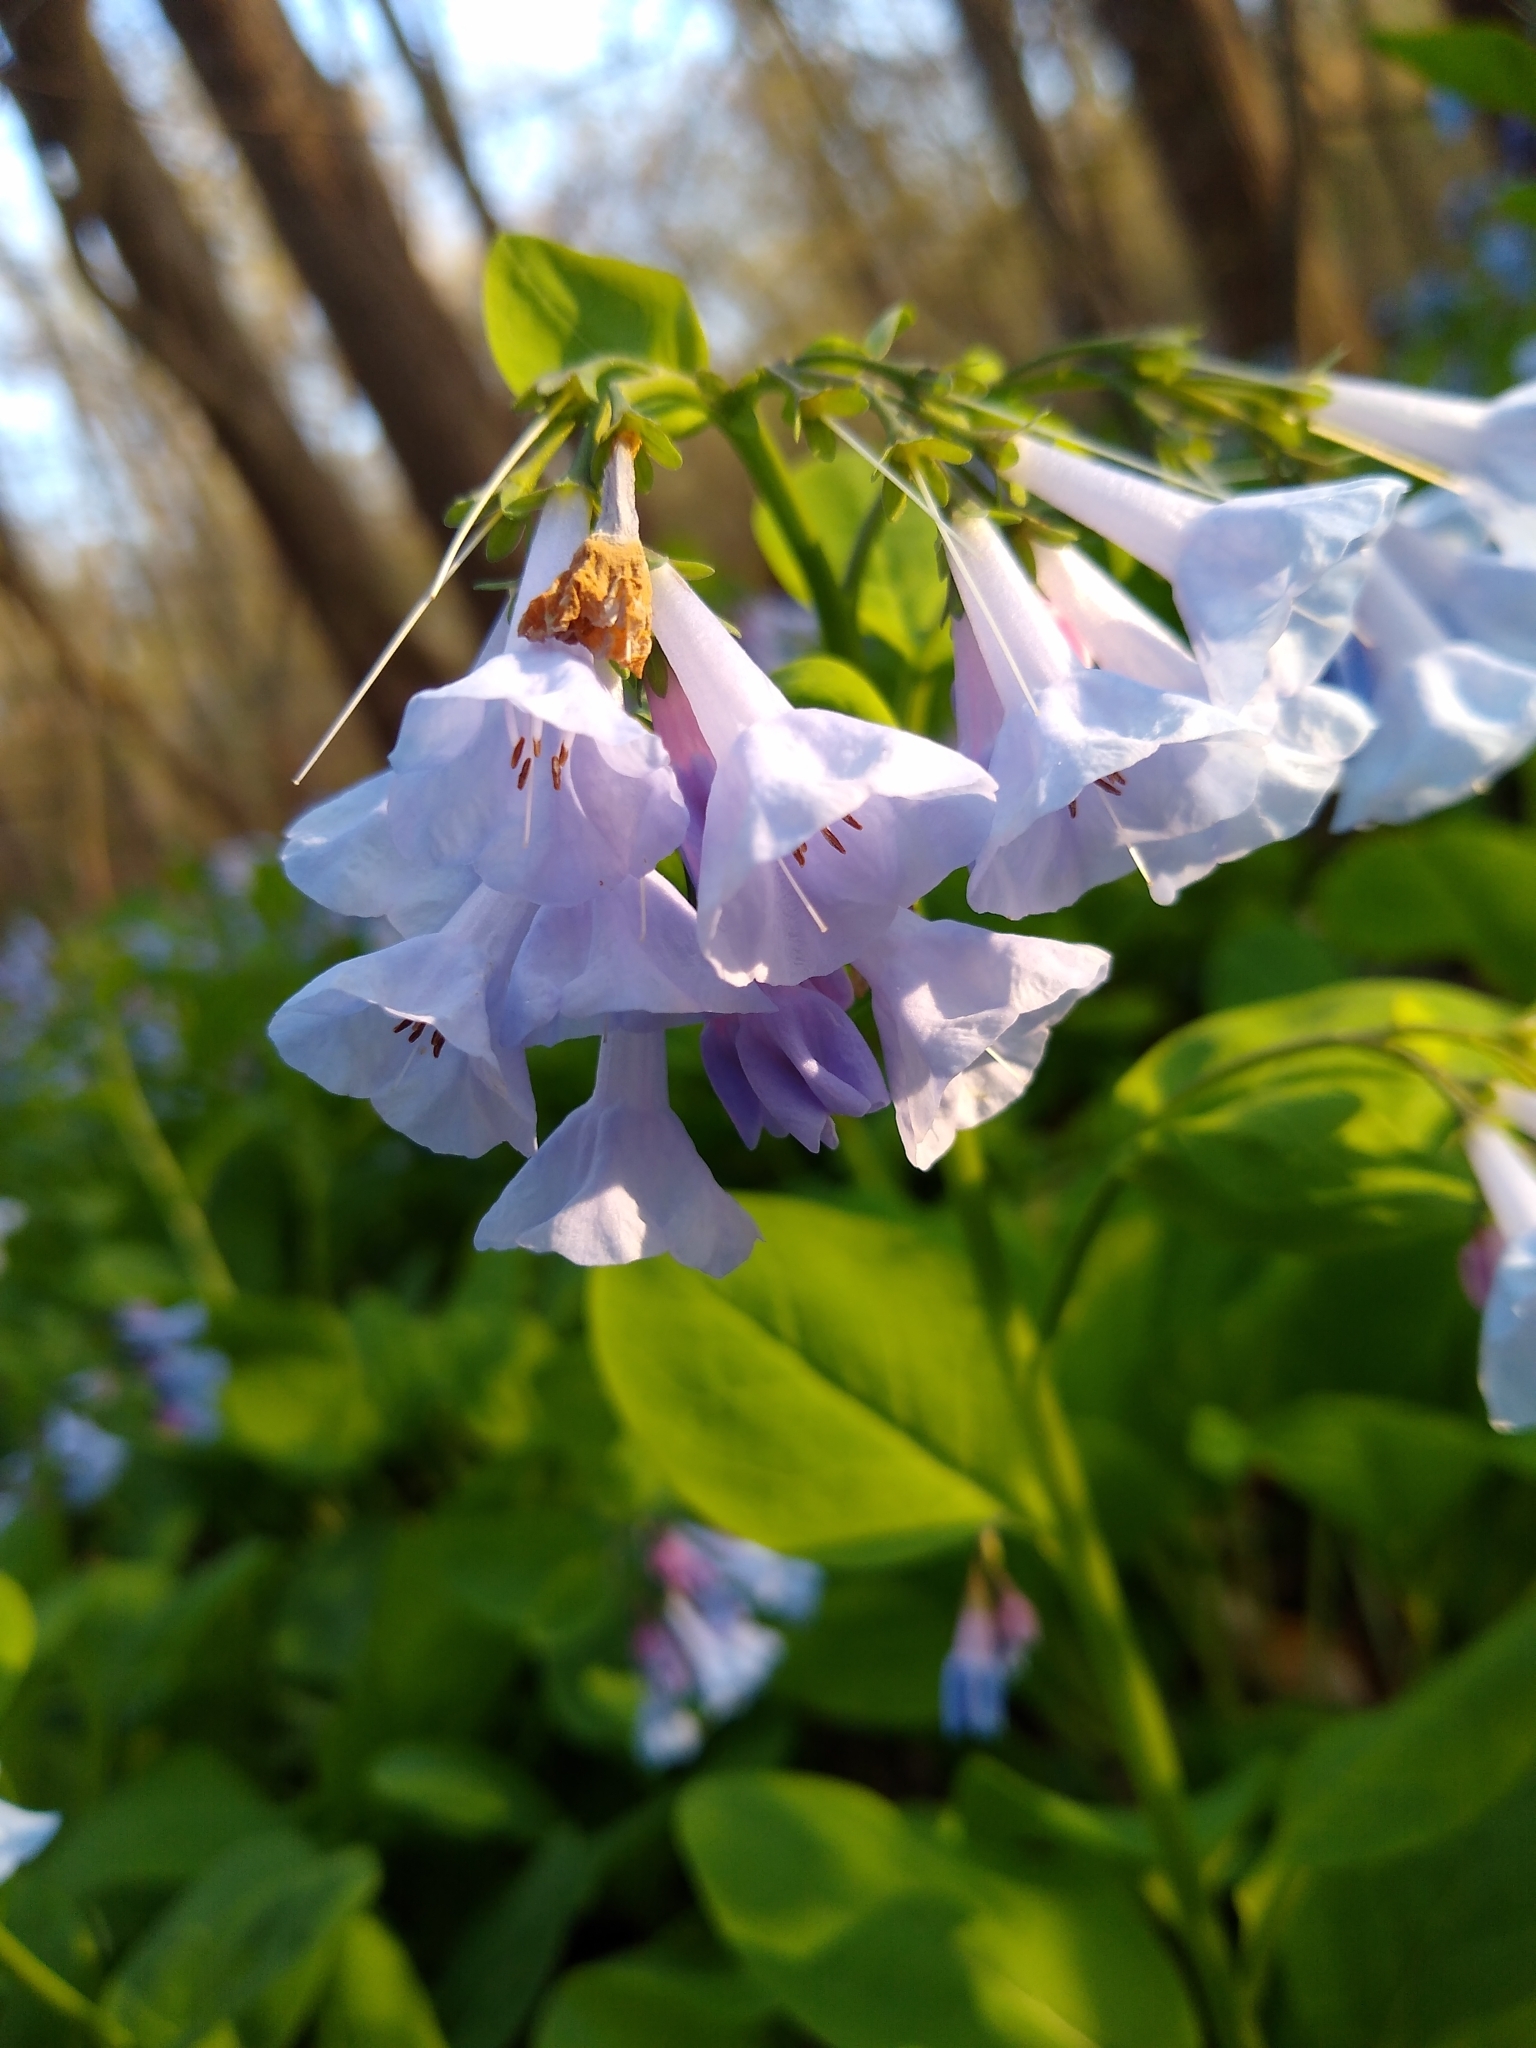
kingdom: Plantae
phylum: Tracheophyta
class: Magnoliopsida
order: Boraginales
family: Boraginaceae
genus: Mertensia
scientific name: Mertensia virginica
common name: Virginia bluebells
